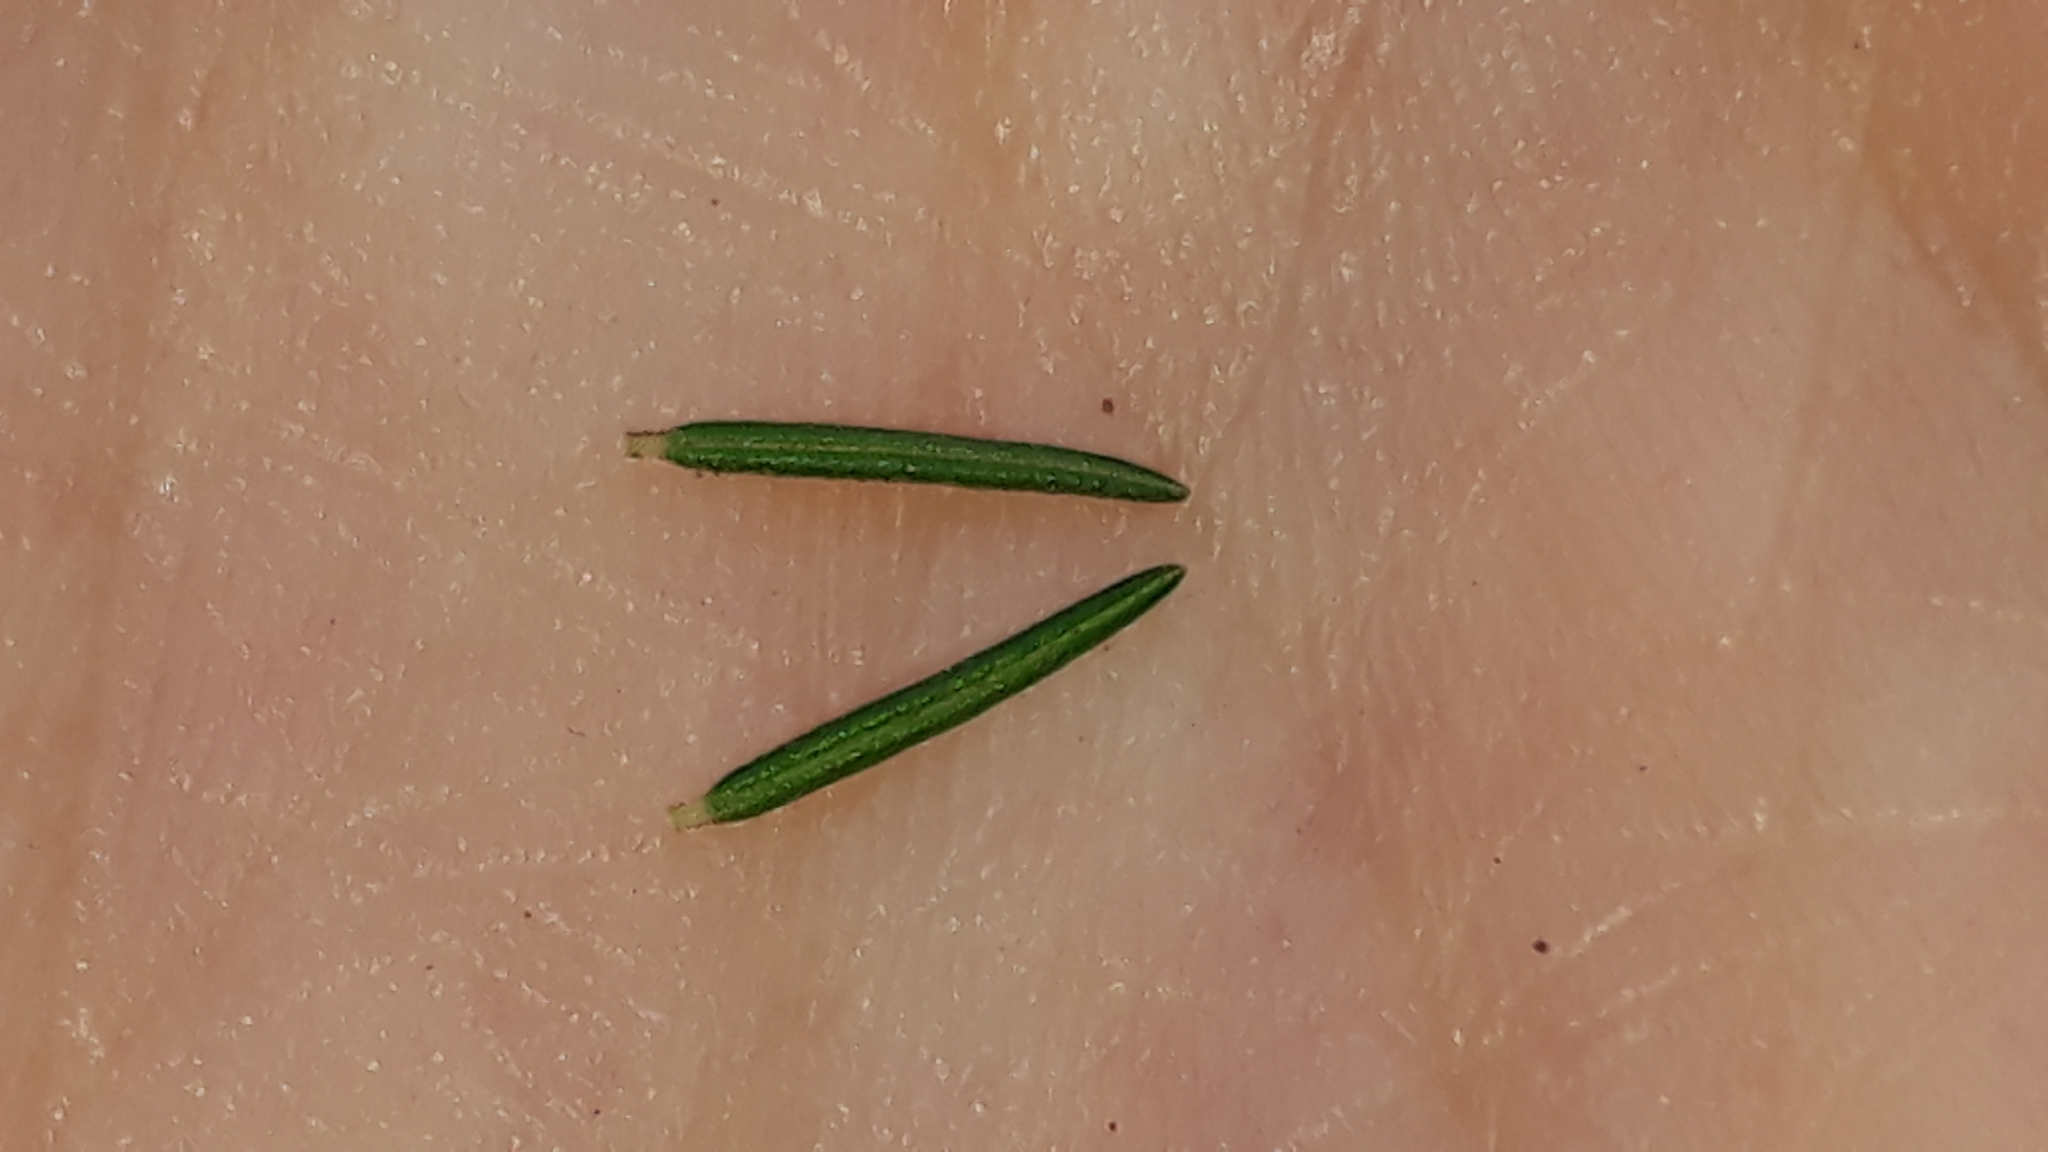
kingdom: Plantae
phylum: Tracheophyta
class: Magnoliopsida
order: Ericales
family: Ericaceae
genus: Erica
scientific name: Erica canariensis
